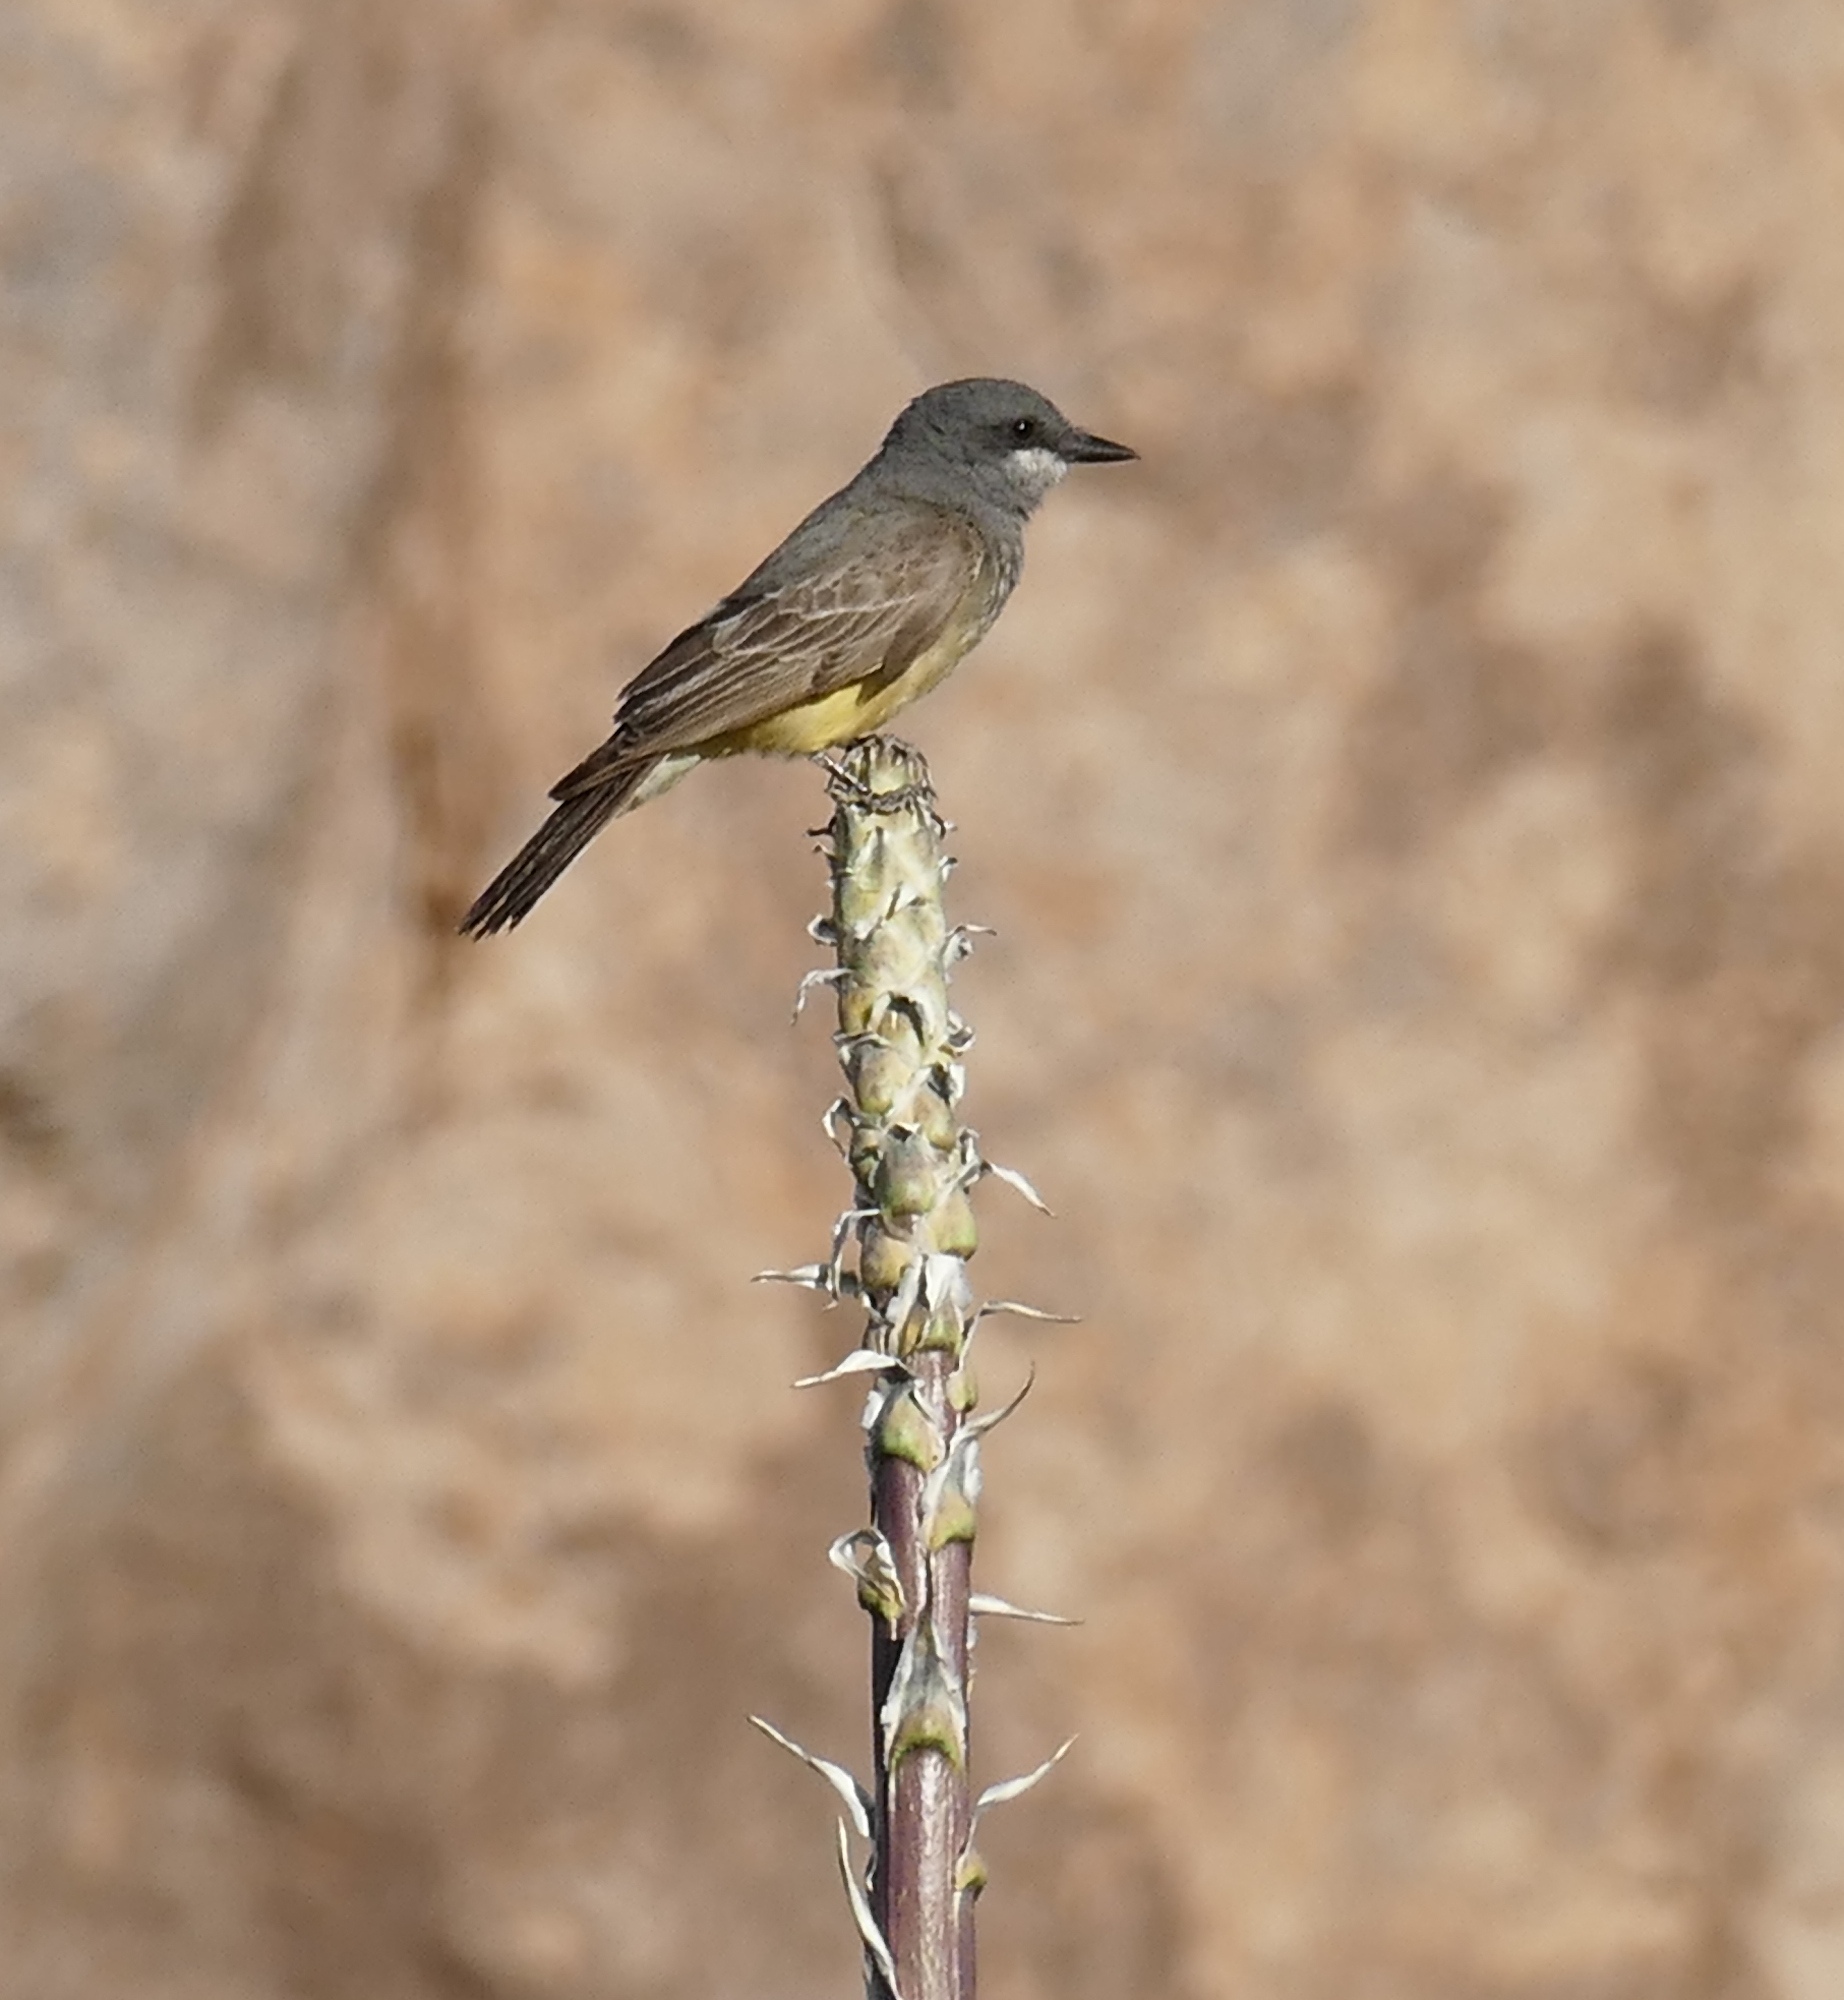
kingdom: Animalia
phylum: Chordata
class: Aves
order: Passeriformes
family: Tyrannidae
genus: Tyrannus
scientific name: Tyrannus vociferans
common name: Cassin's kingbird
